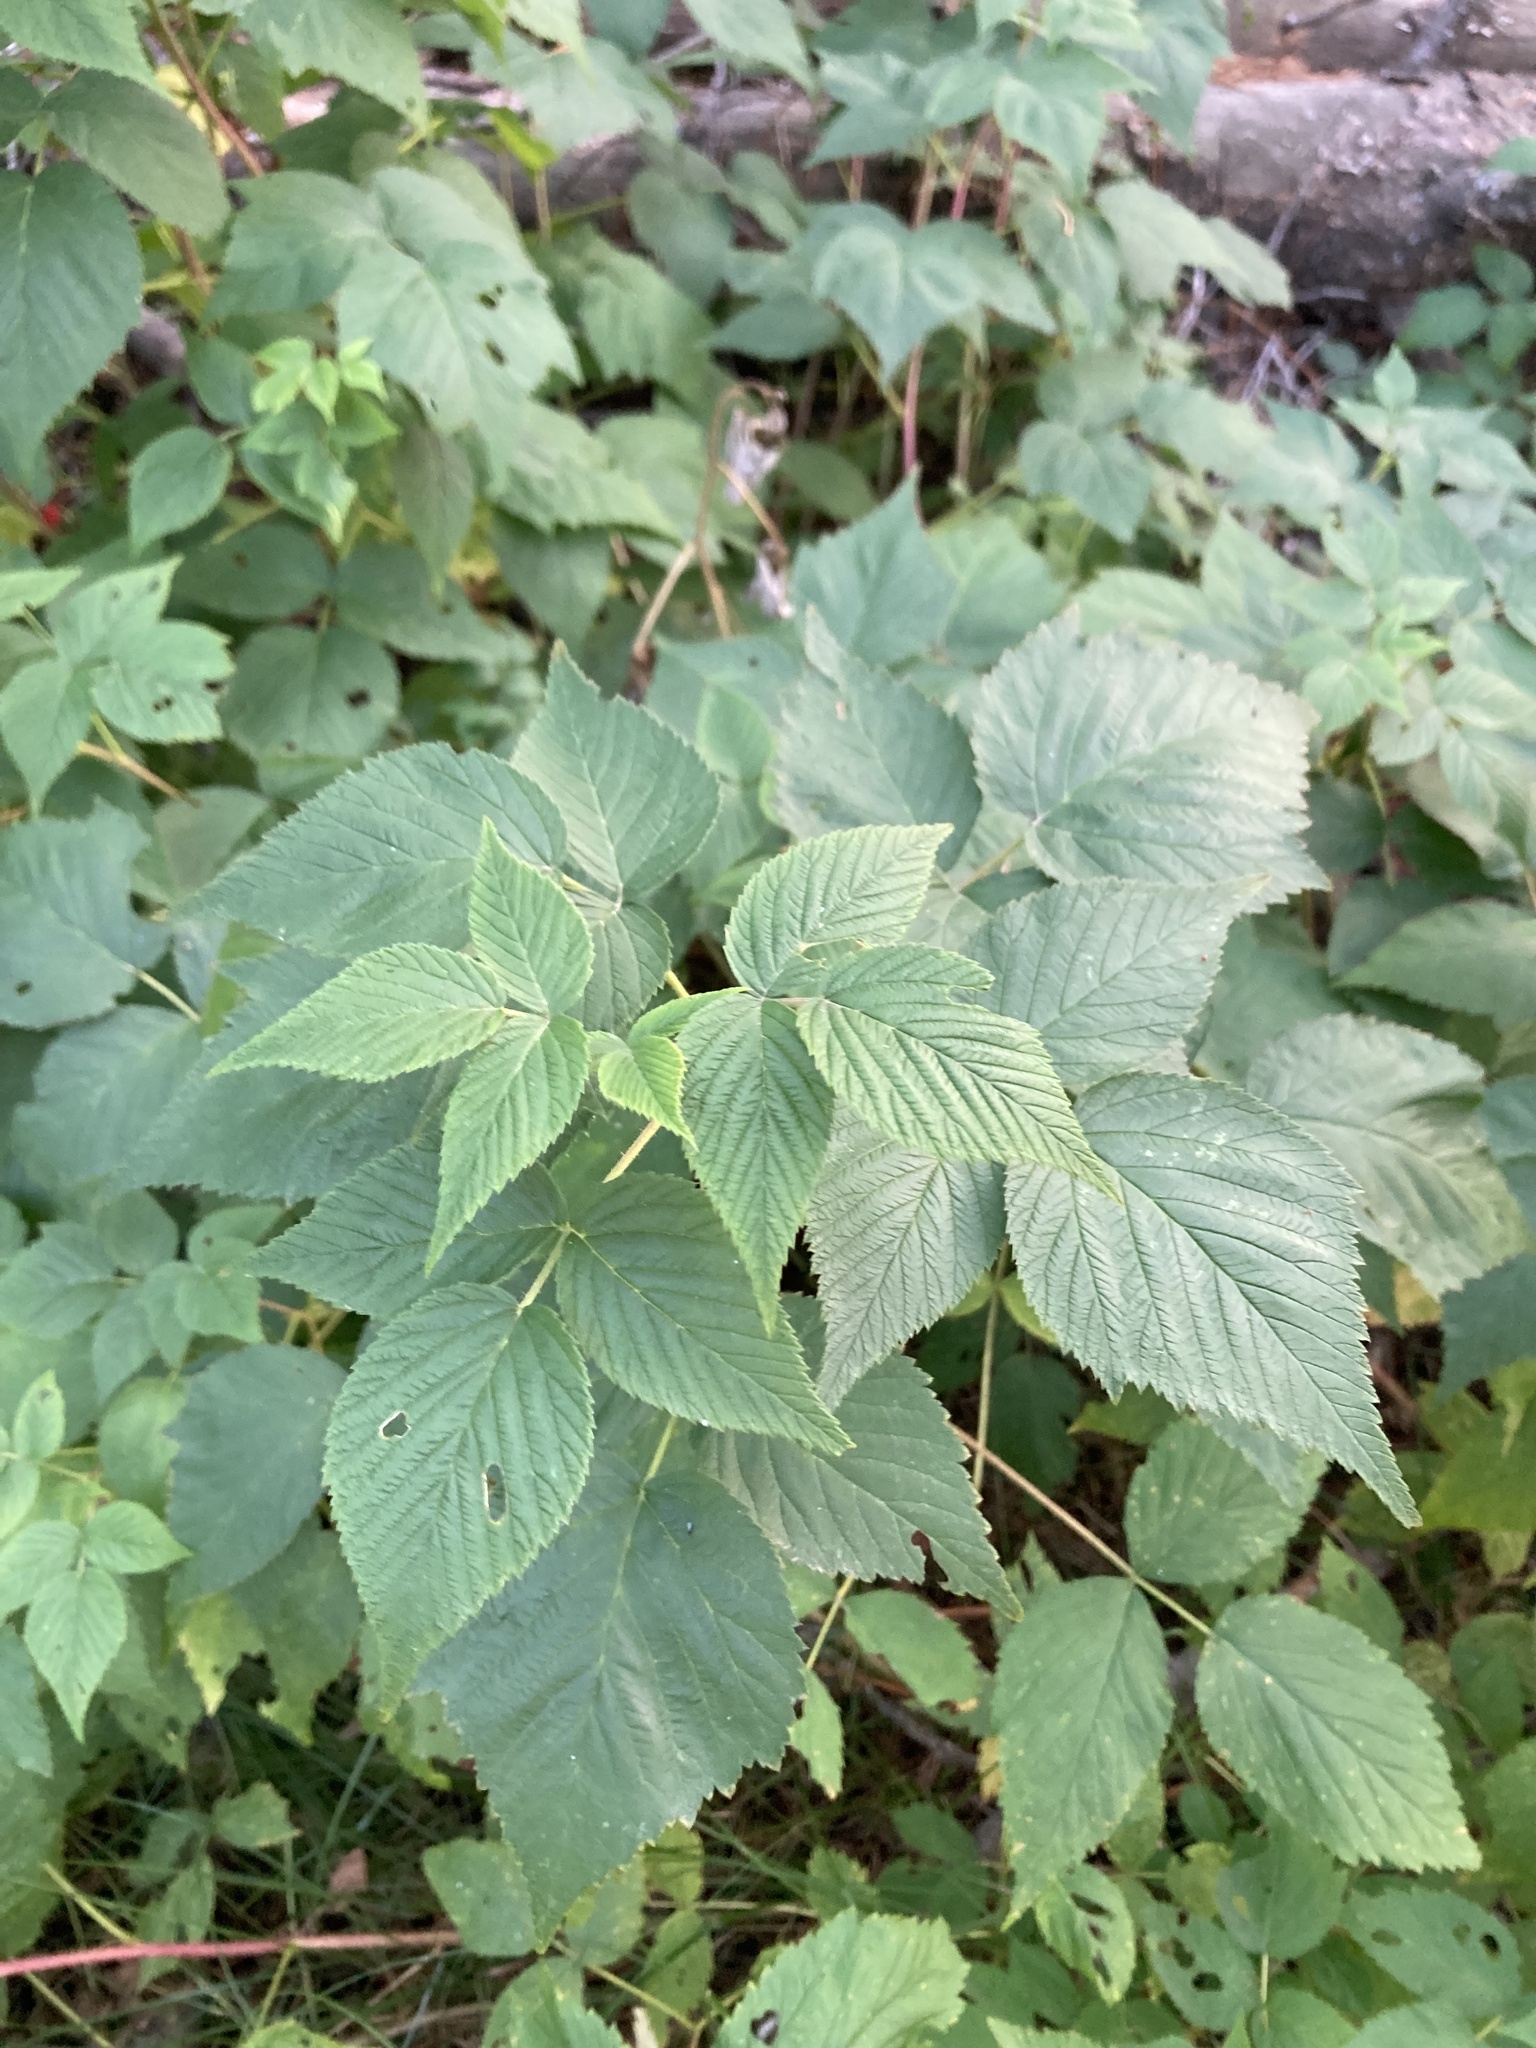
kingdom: Plantae
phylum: Tracheophyta
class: Magnoliopsida
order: Rosales
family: Rosaceae
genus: Rubus
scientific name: Rubus idaeus
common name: Raspberry
